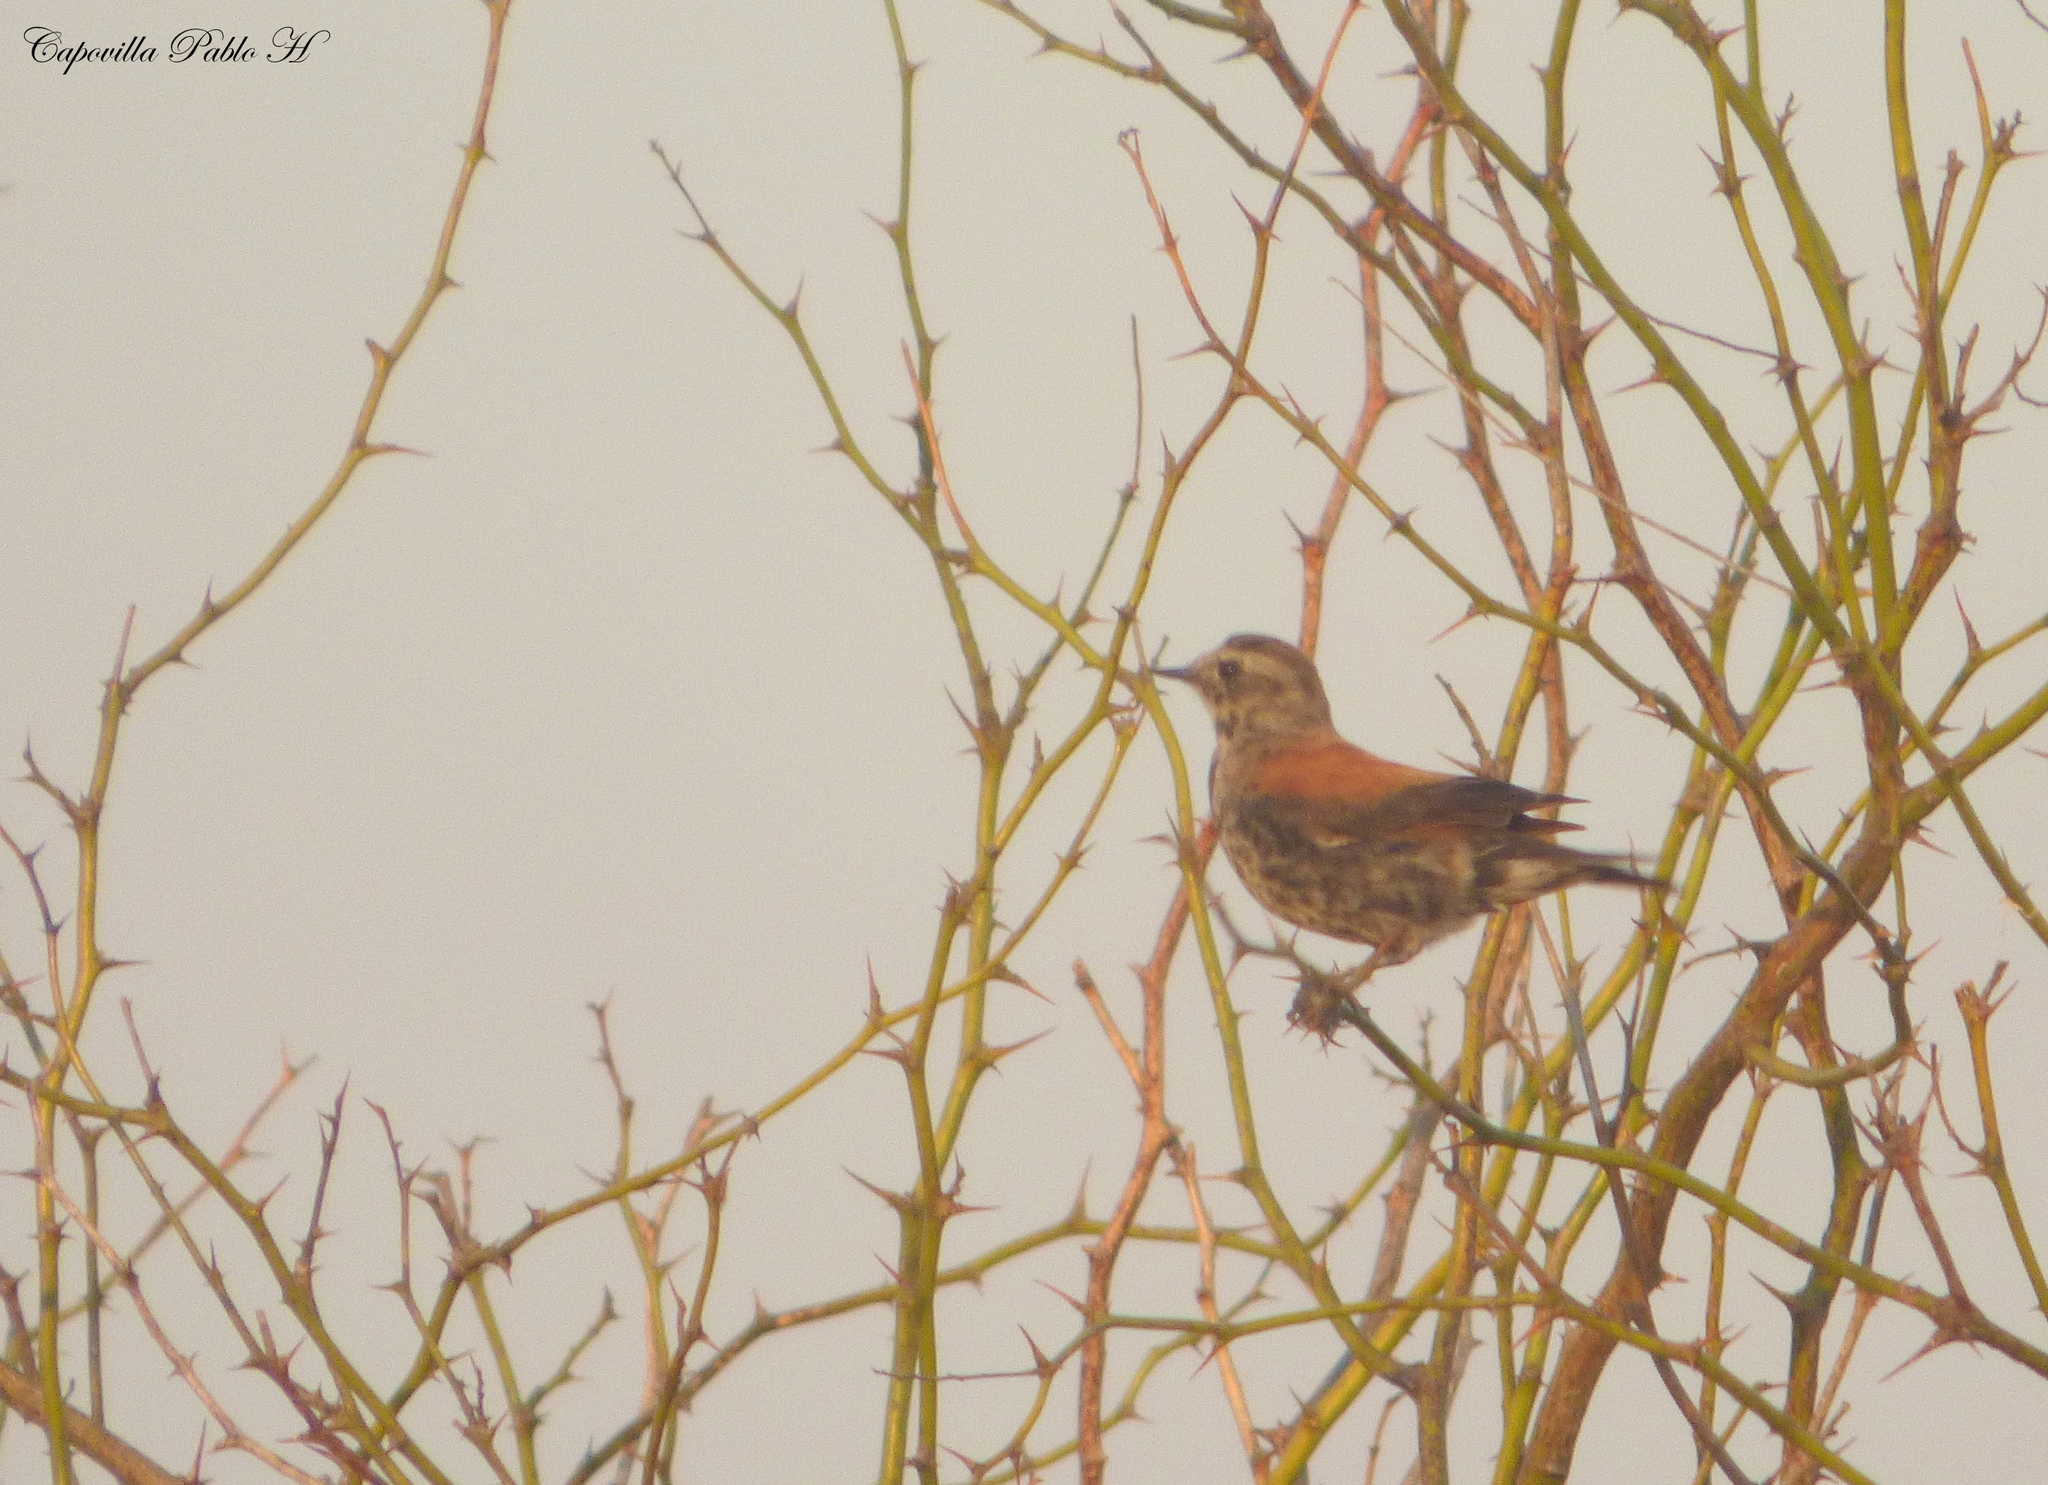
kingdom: Animalia
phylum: Chordata
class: Aves
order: Passeriformes
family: Tyrannidae
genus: Lessonia
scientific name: Lessonia rufa
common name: Austral negrito
